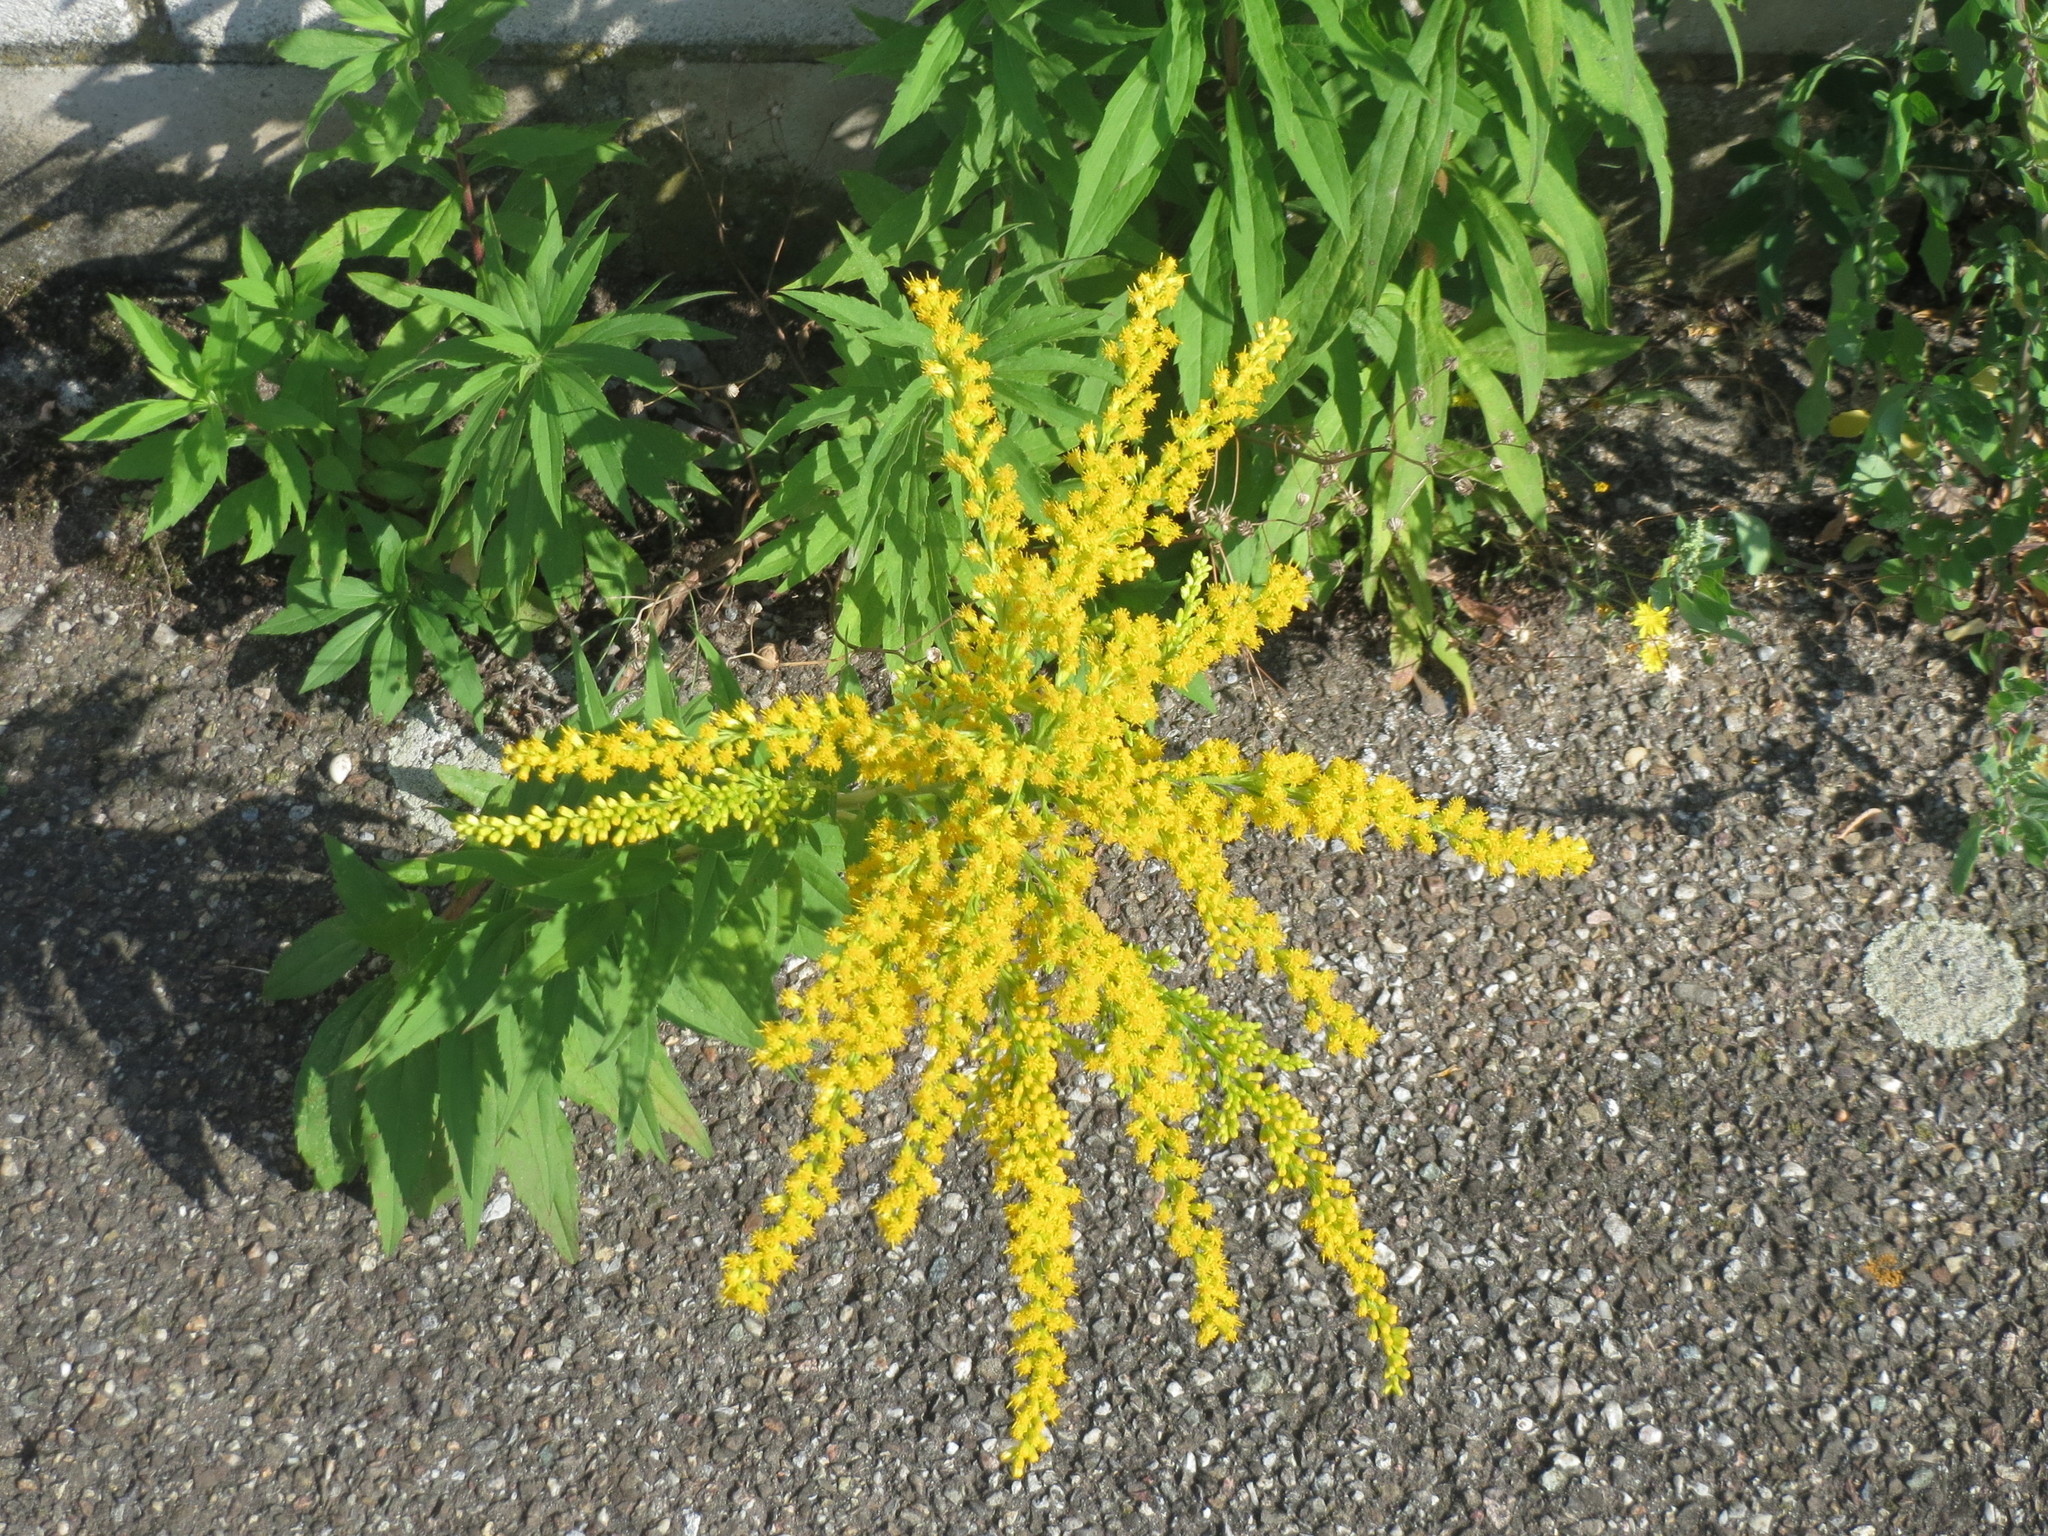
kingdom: Plantae
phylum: Tracheophyta
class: Magnoliopsida
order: Asterales
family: Asteraceae
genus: Solidago
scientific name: Solidago canadensis
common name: Canada goldenrod
